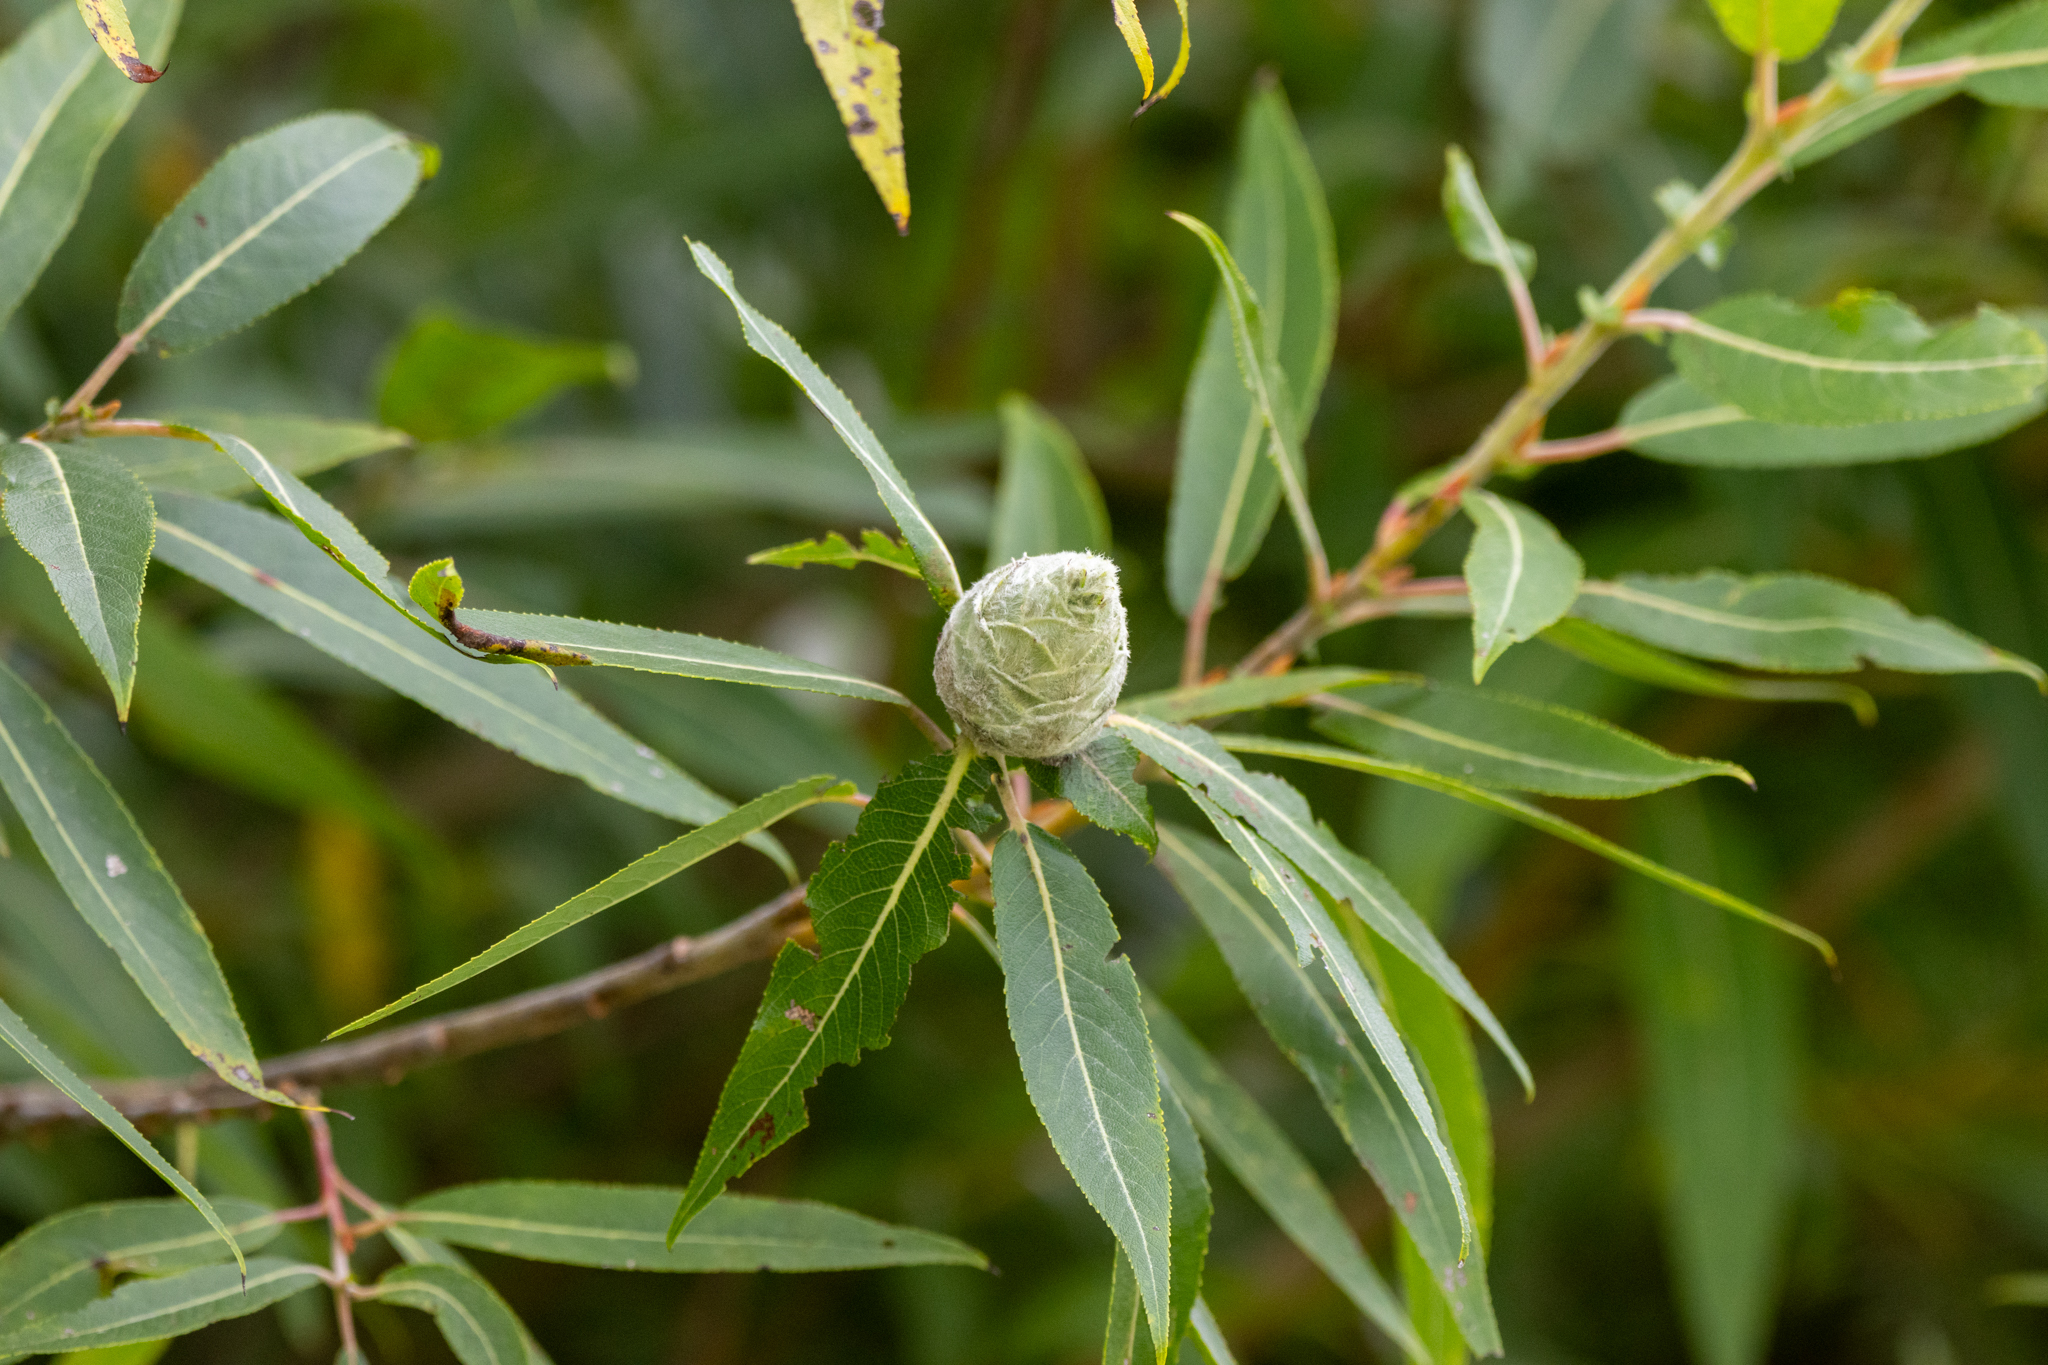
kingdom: Animalia
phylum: Arthropoda
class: Insecta
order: Diptera
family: Cecidomyiidae
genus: Rabdophaga
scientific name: Rabdophaga strobiloides
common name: Willow pinecone gall midge
